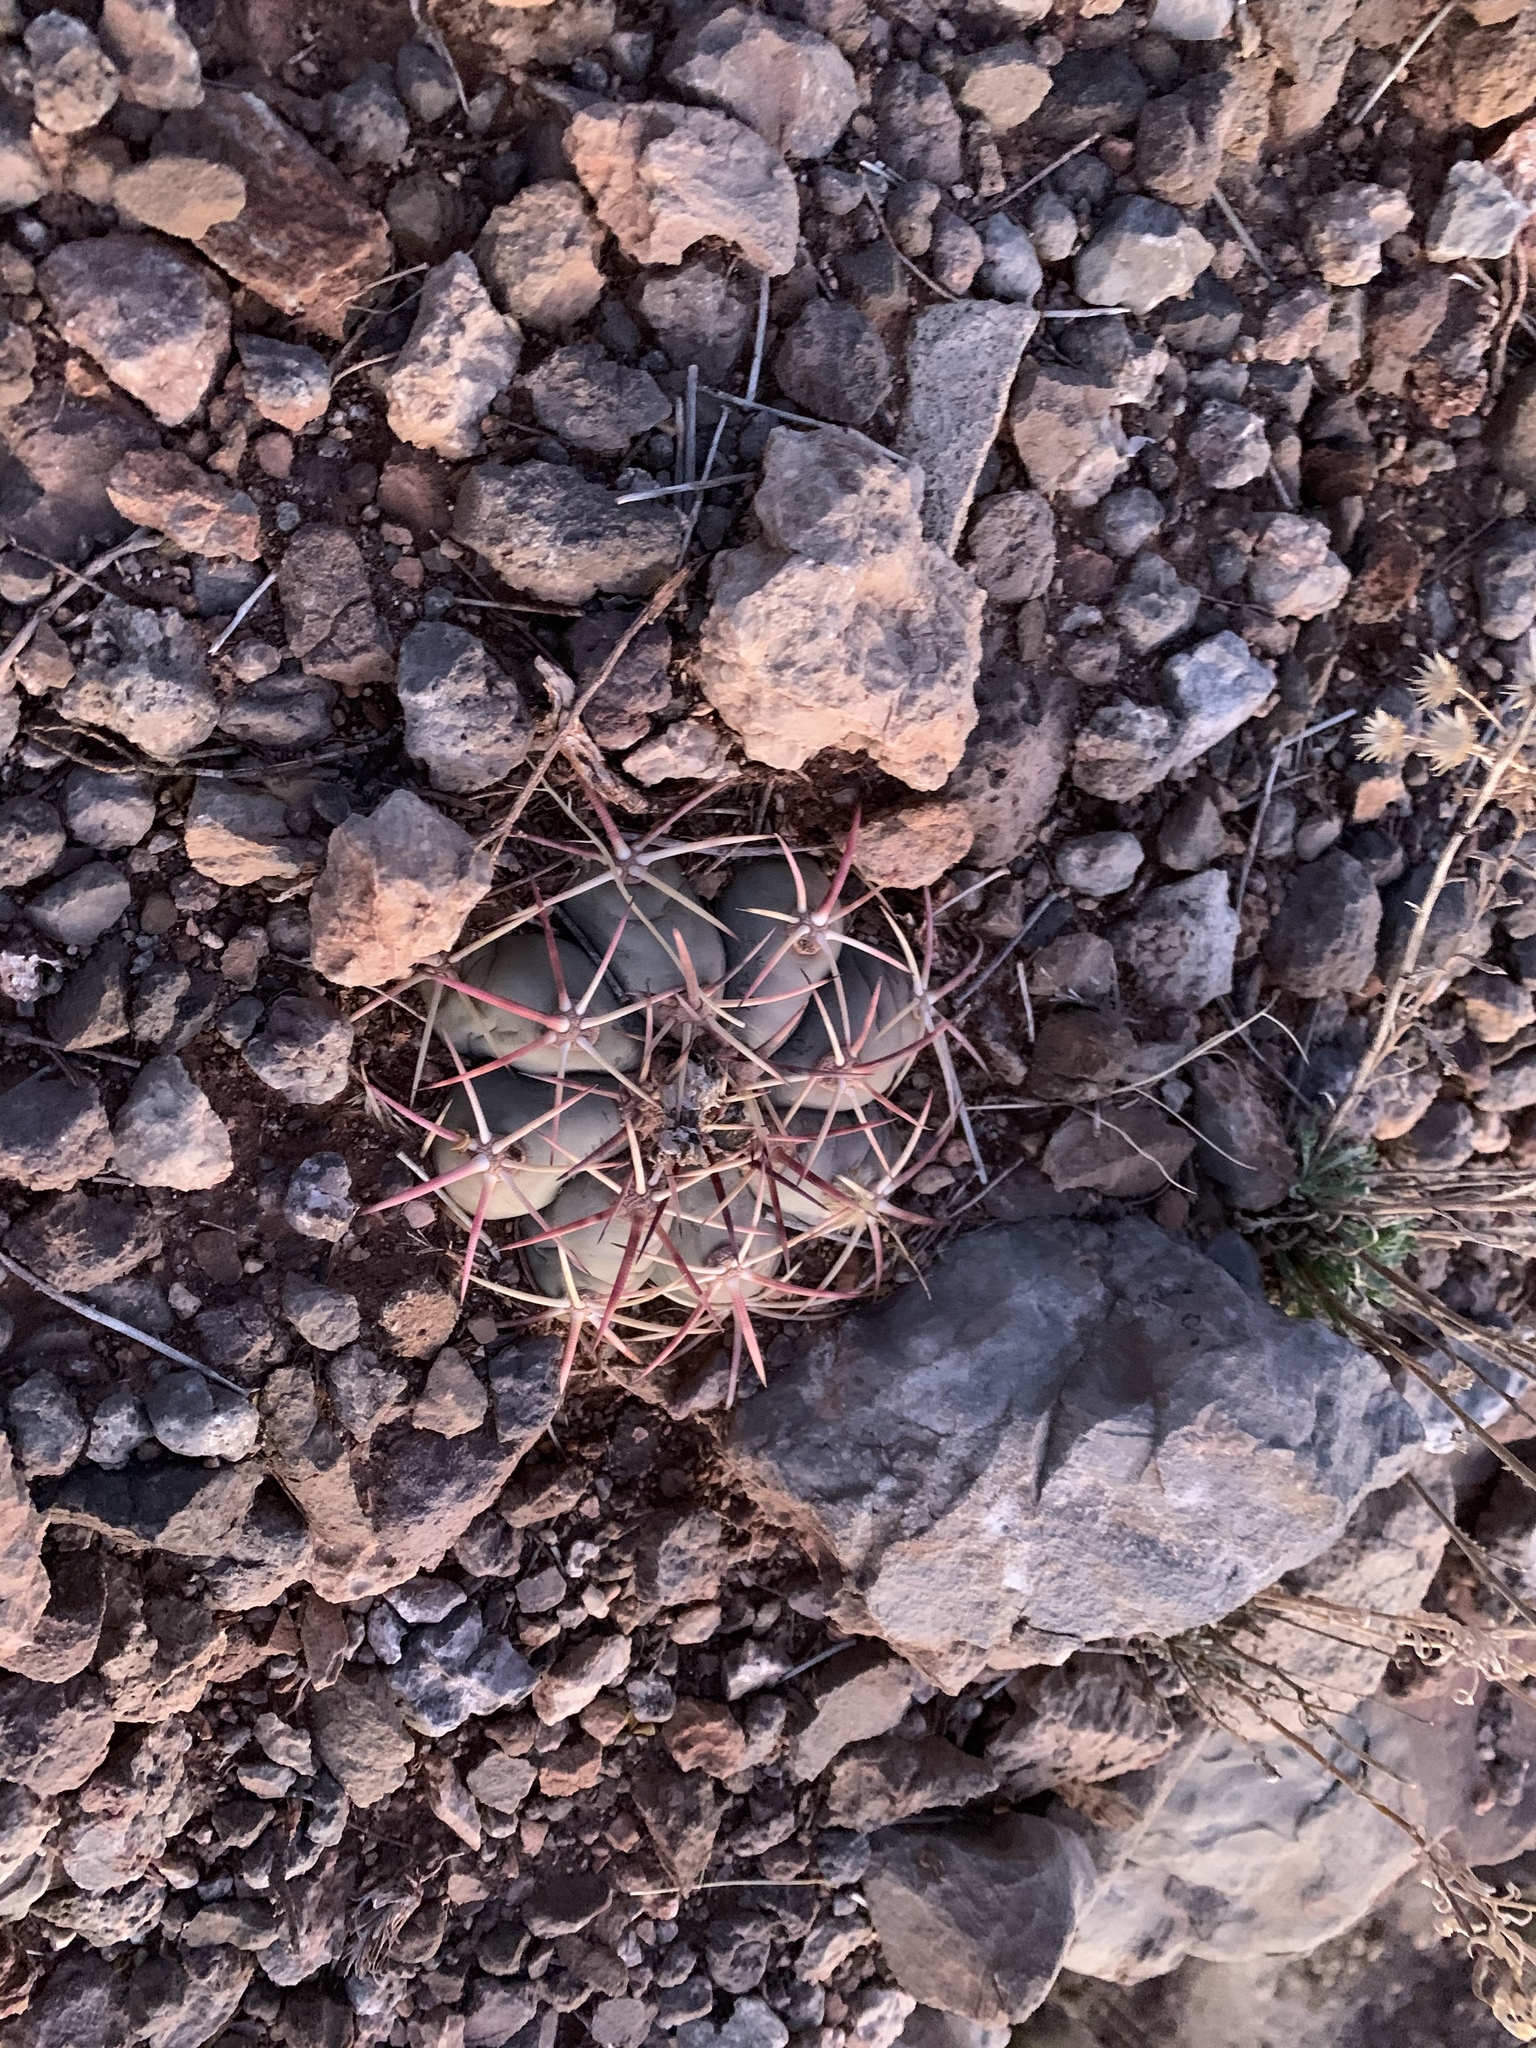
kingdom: Plantae
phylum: Tracheophyta
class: Magnoliopsida
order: Caryophyllales
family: Cactaceae
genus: Echinocactus
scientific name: Echinocactus horizonthalonius
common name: Devilshead
